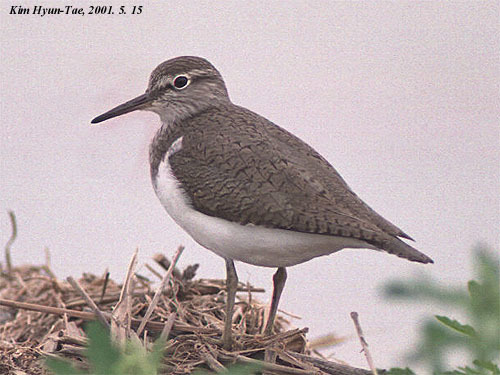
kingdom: Animalia
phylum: Chordata
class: Aves
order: Charadriiformes
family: Scolopacidae
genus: Actitis
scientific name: Actitis hypoleucos
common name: Common sandpiper
